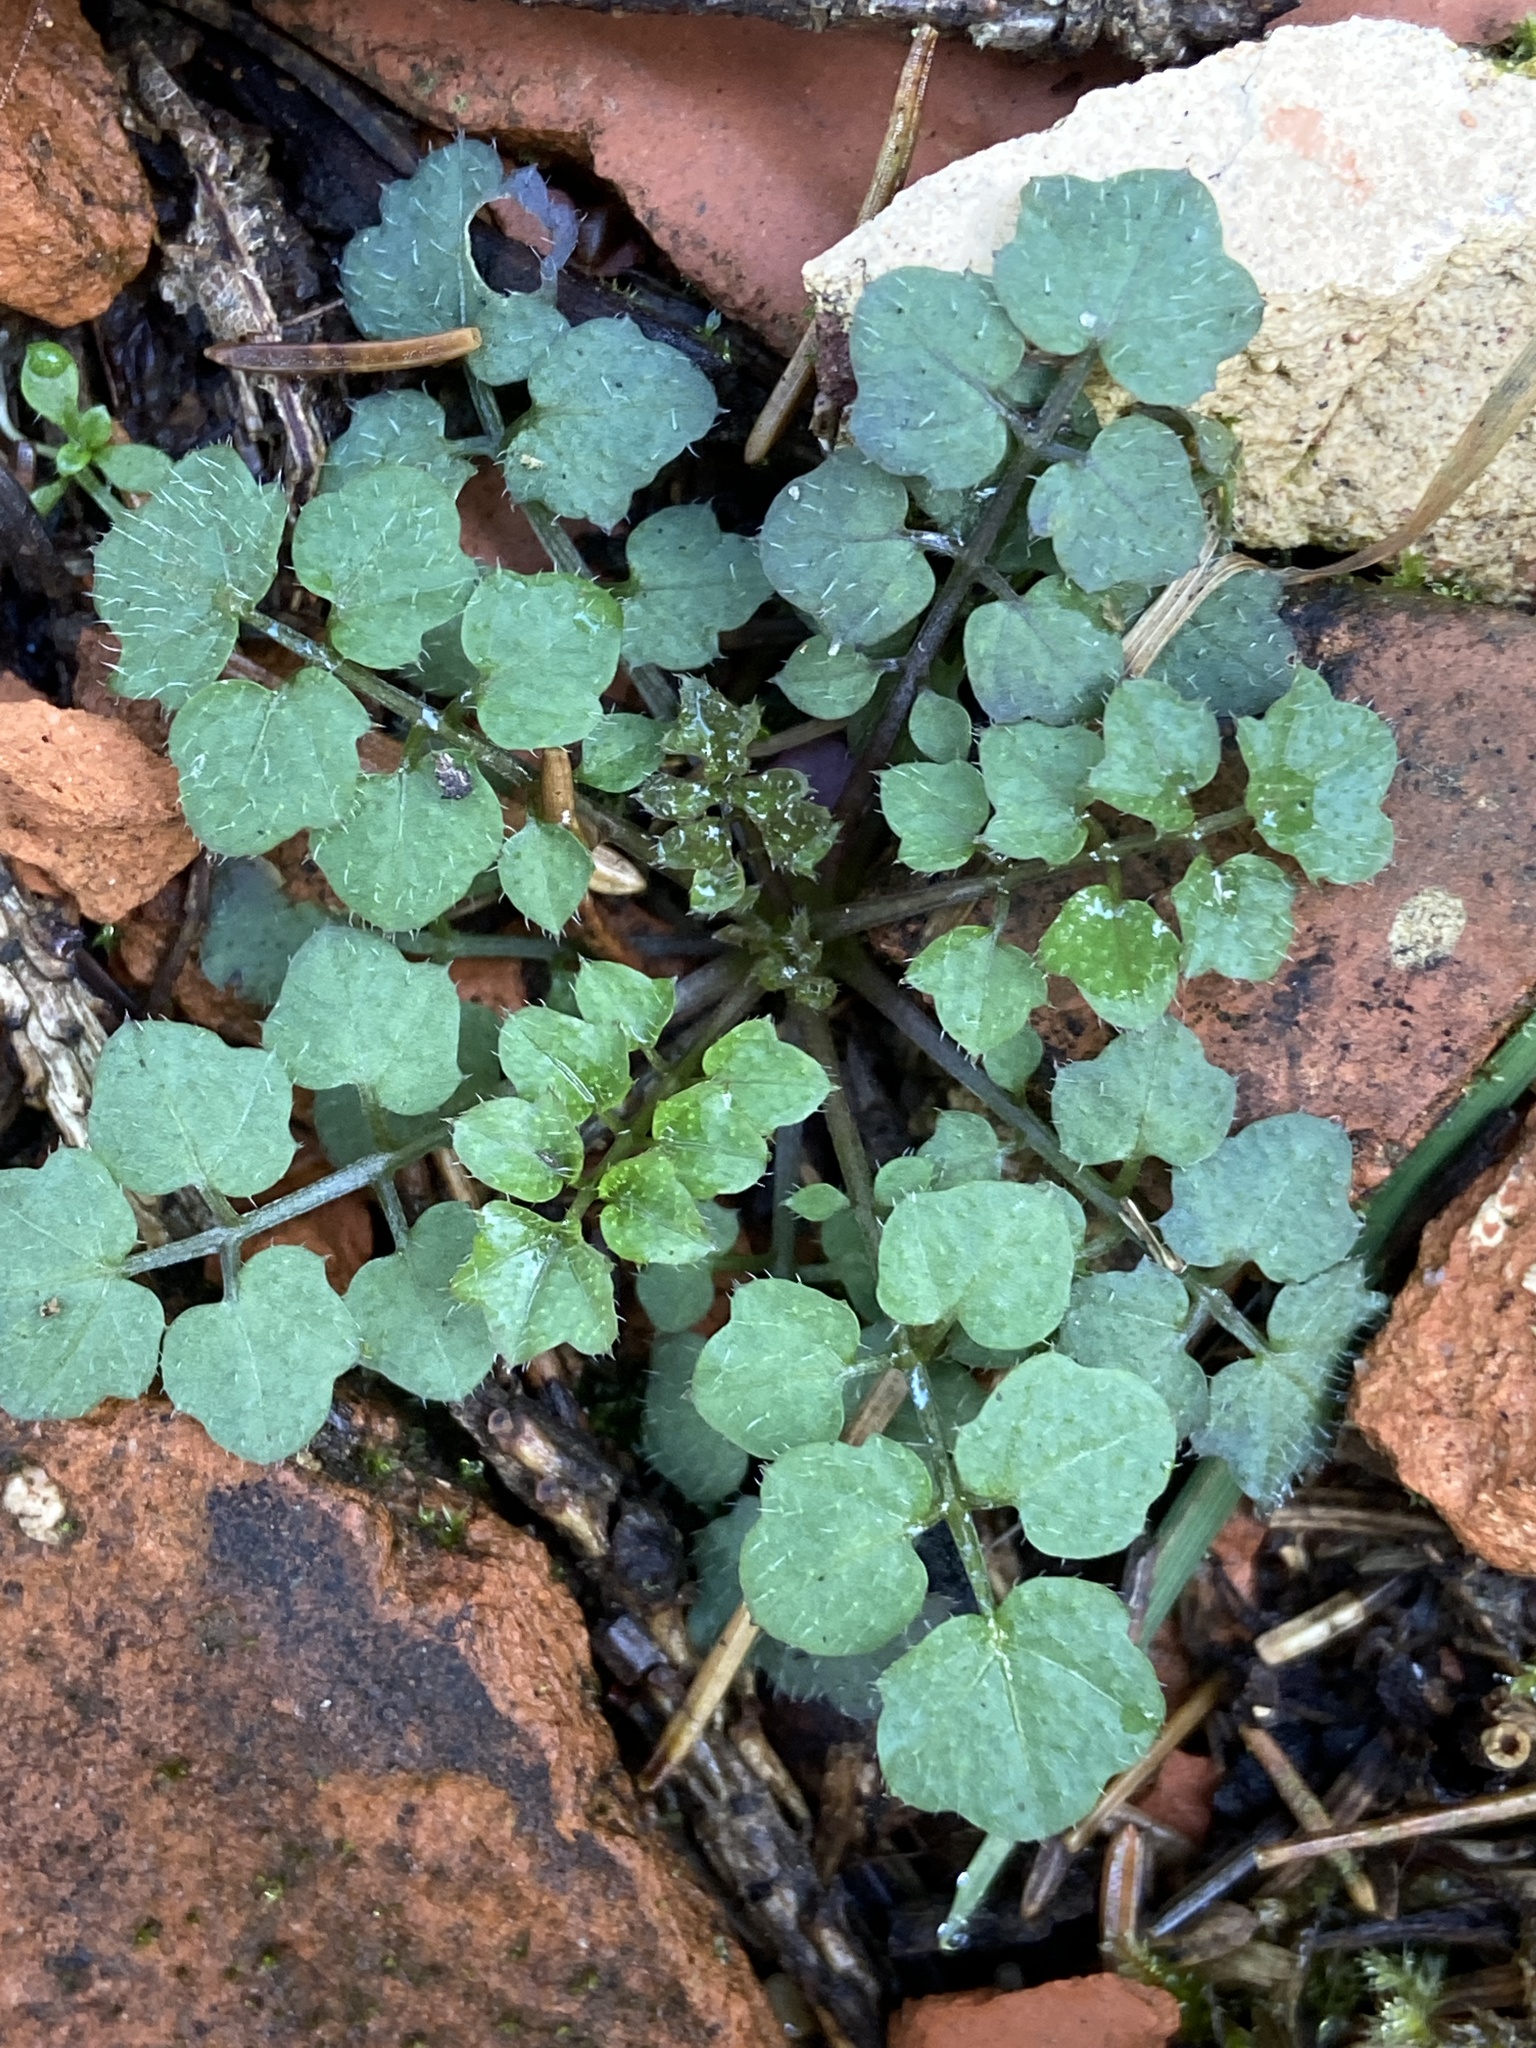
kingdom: Plantae
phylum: Tracheophyta
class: Magnoliopsida
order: Brassicales
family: Brassicaceae
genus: Cardamine
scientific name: Cardamine impatiens
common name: Narrow-leaved bitter-cress
